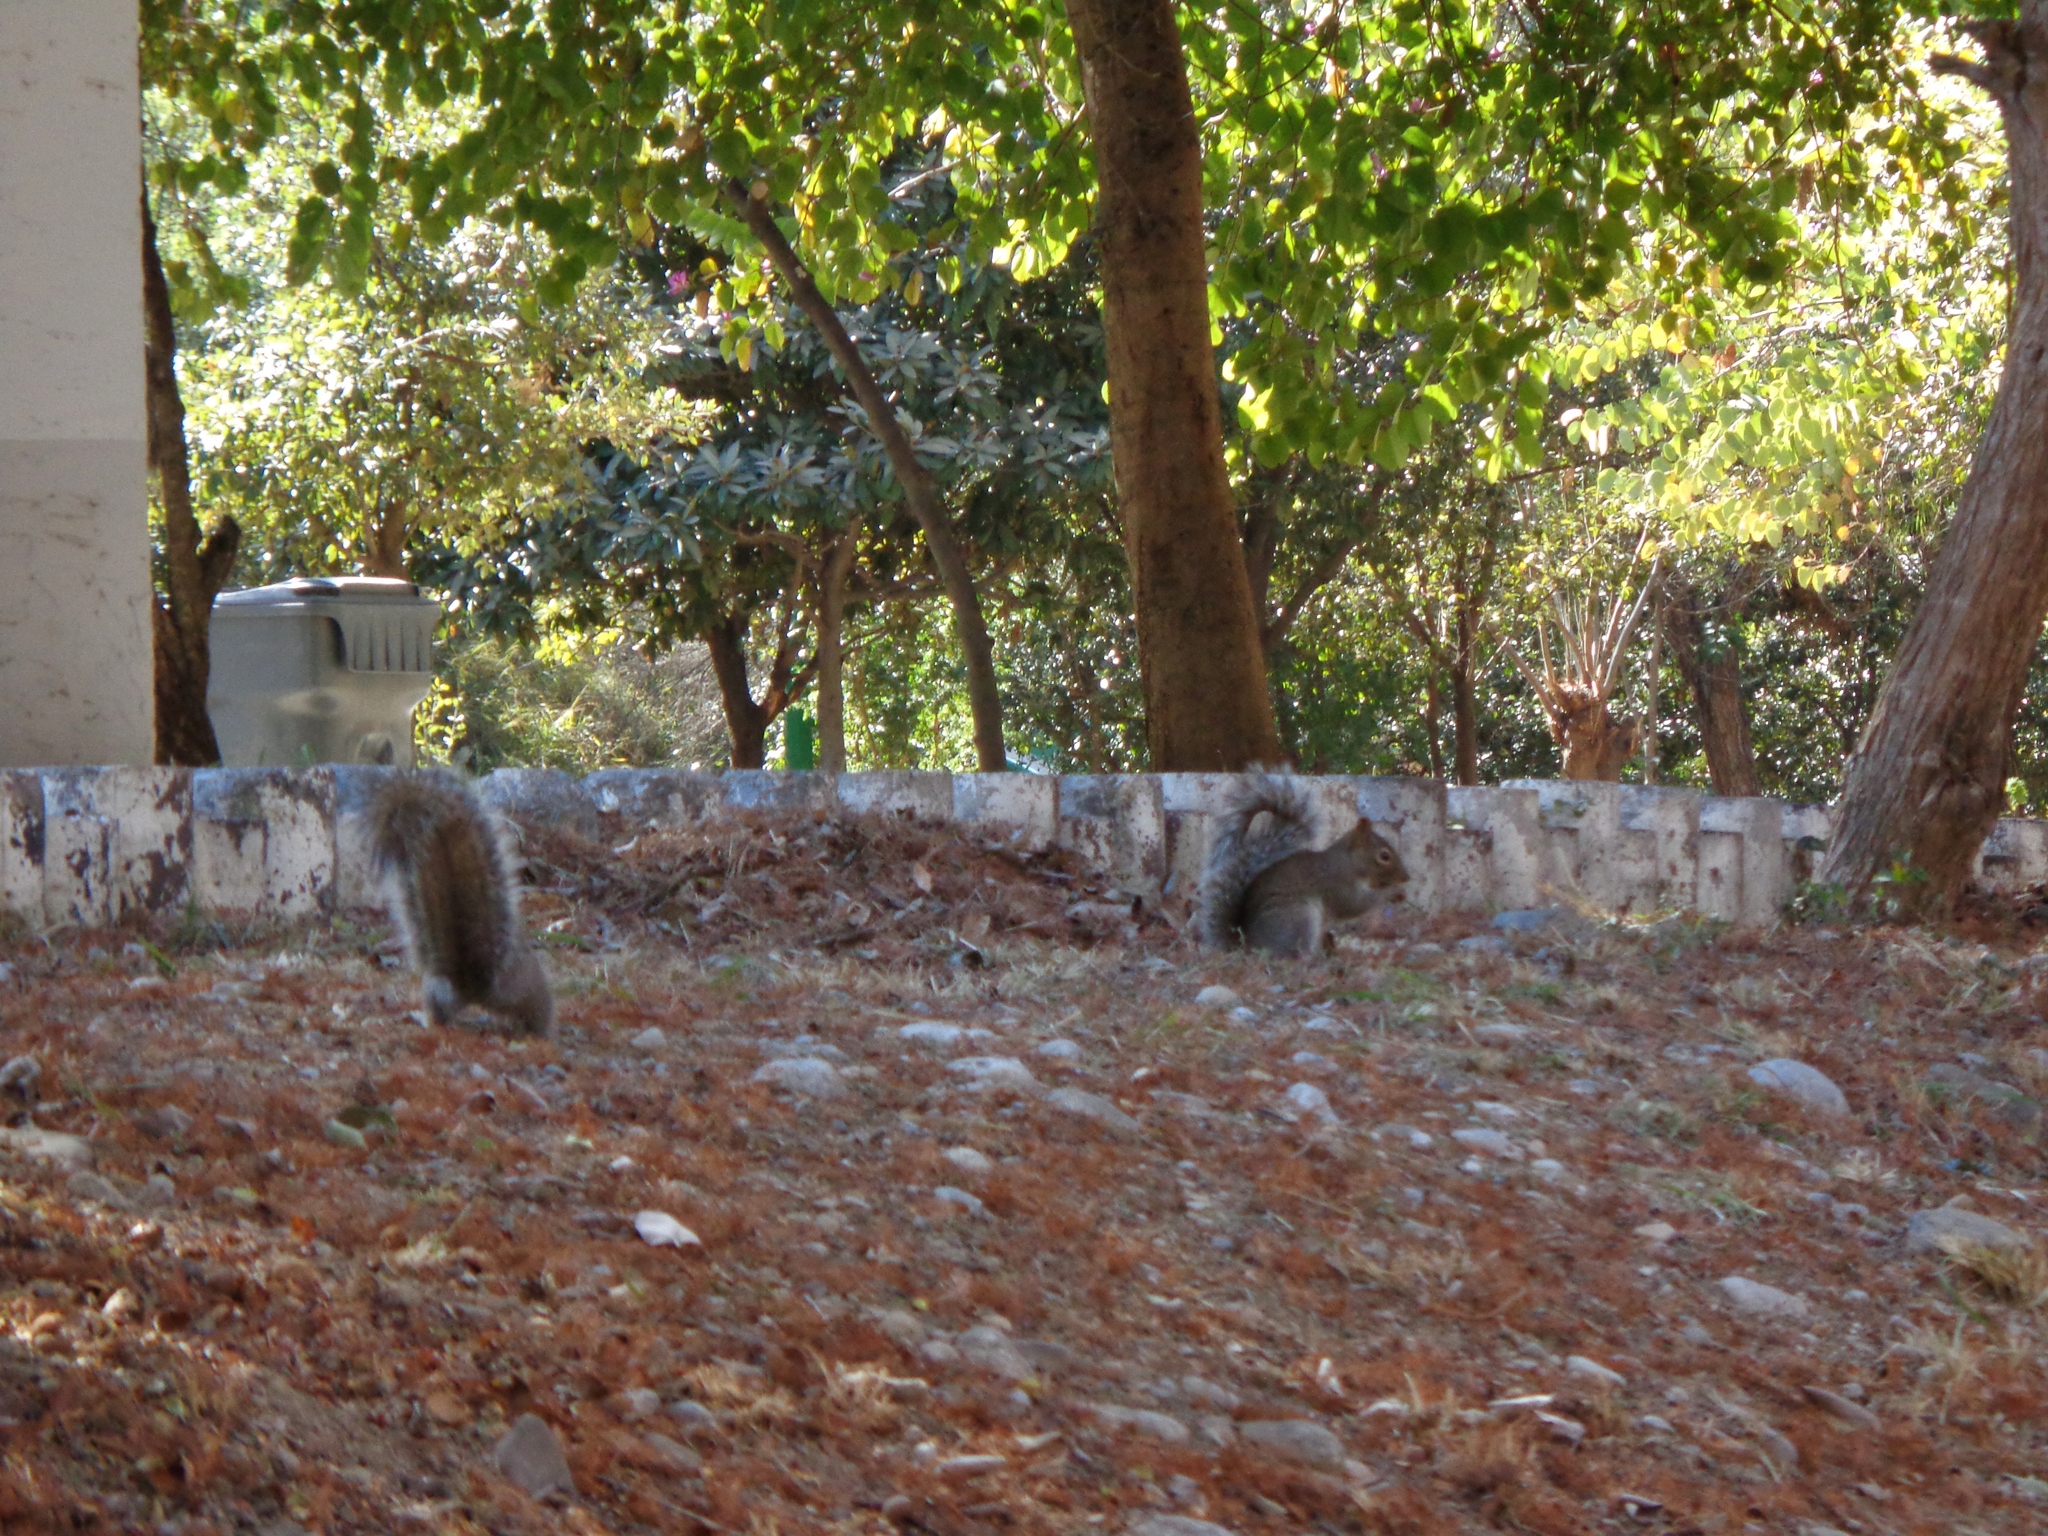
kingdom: Animalia
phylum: Chordata
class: Mammalia
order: Rodentia
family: Sciuridae
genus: Sciurus
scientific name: Sciurus alleni
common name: Allen's squirrel
